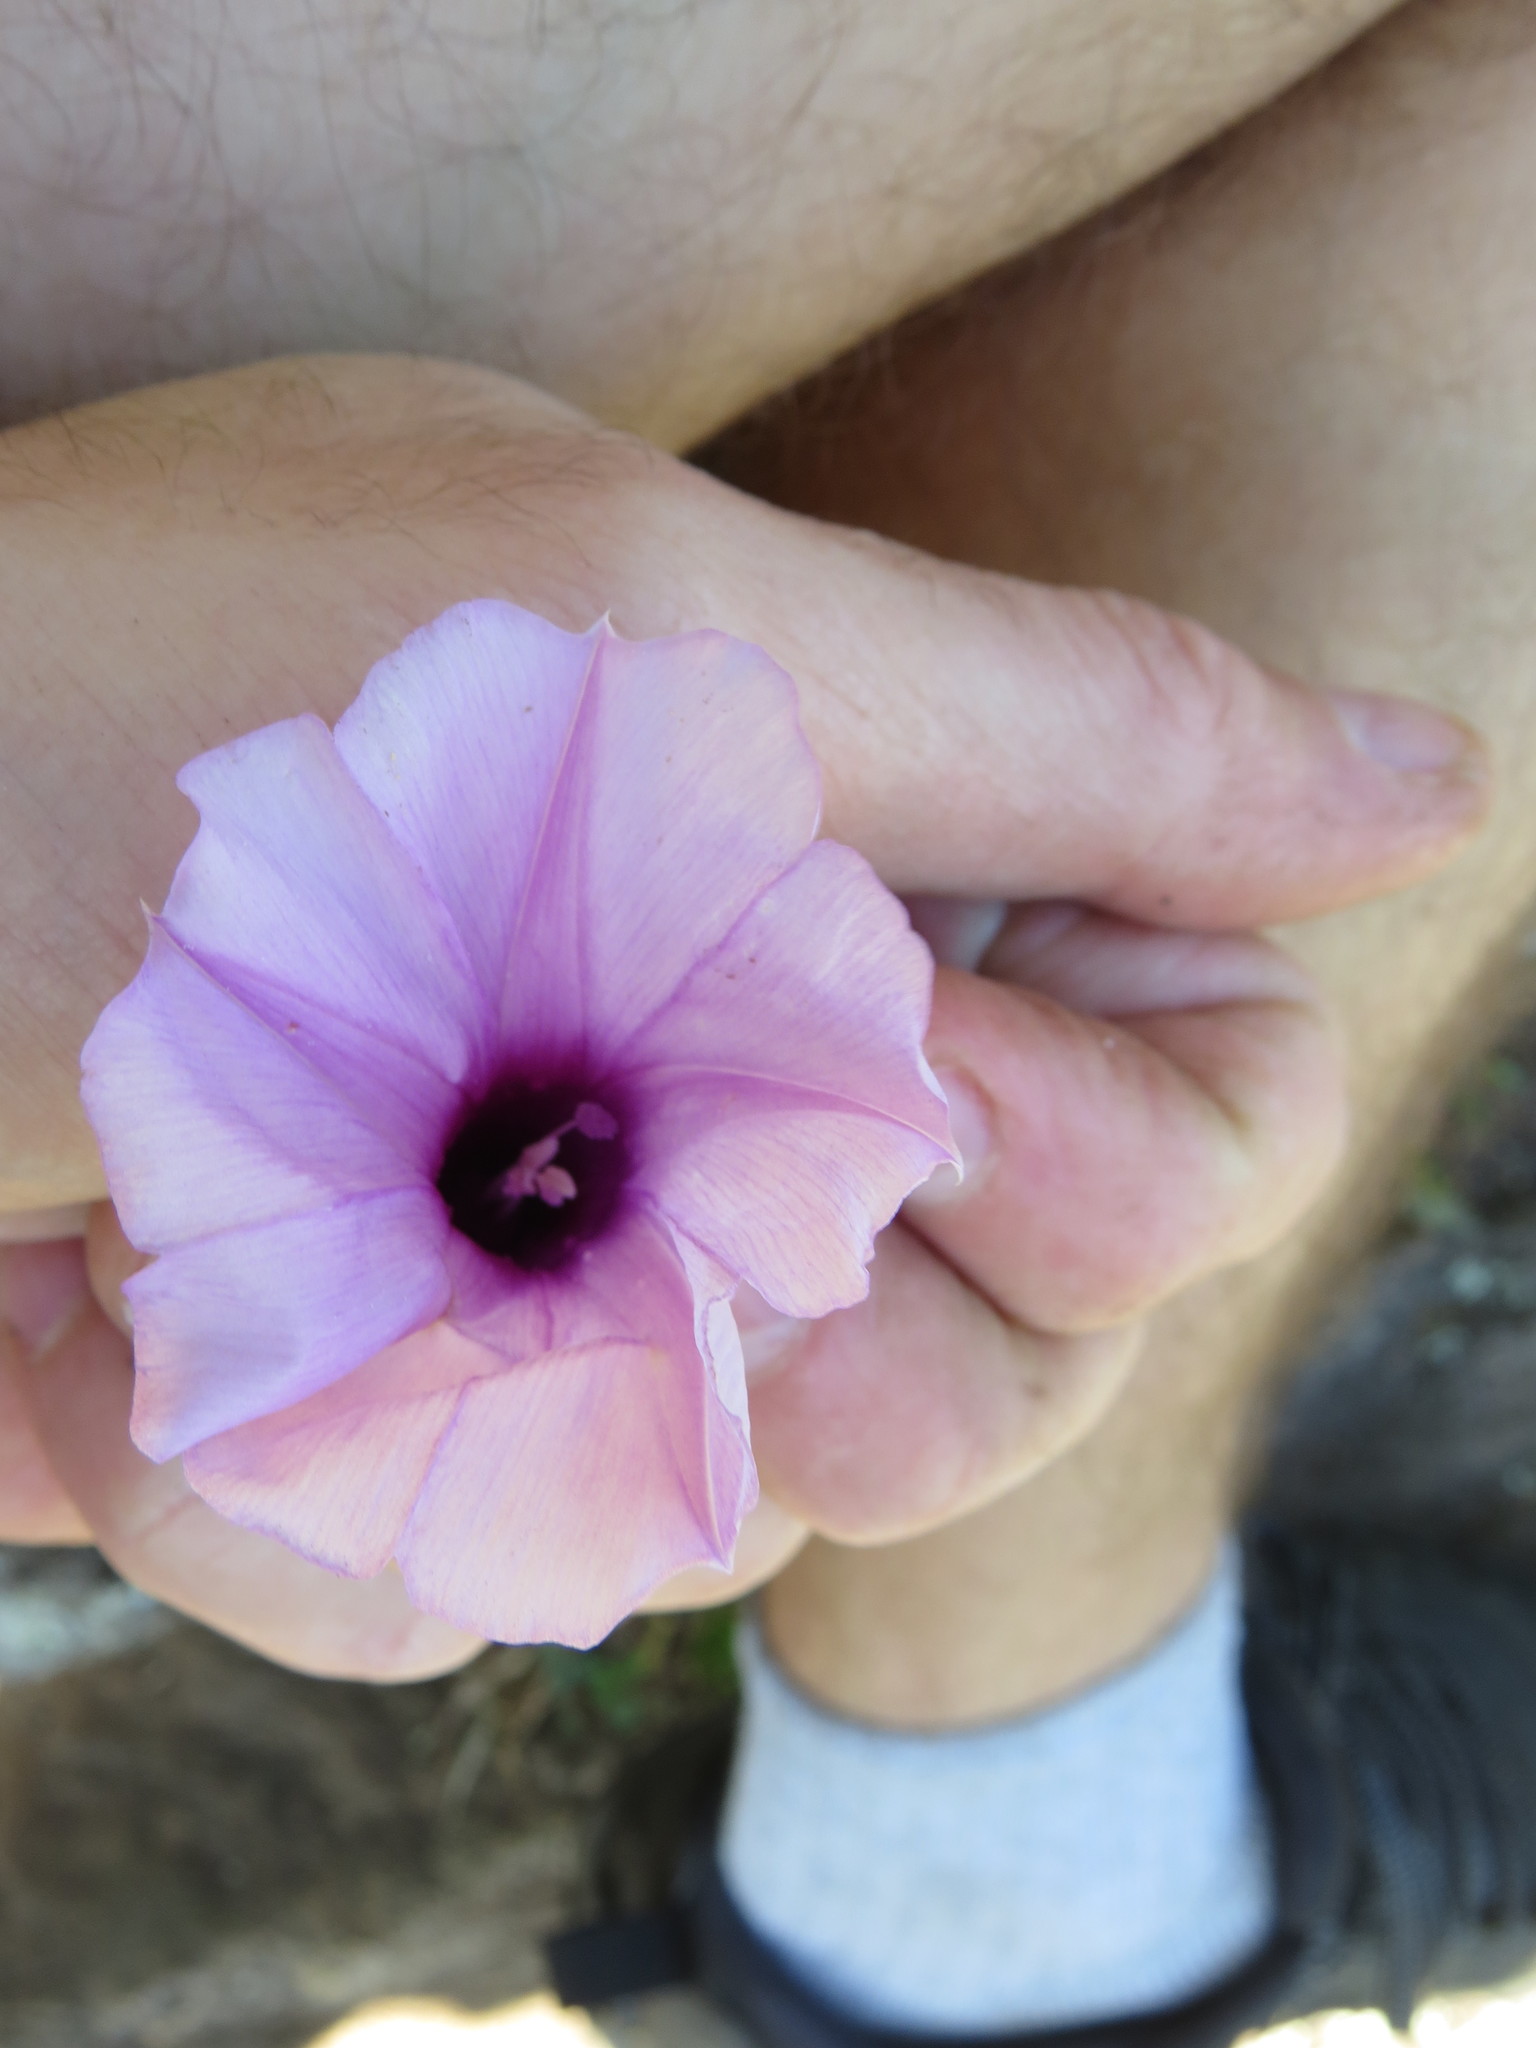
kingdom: Plantae
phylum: Tracheophyta
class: Magnoliopsida
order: Solanales
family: Convolvulaceae
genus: Ipomoea
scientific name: Ipomoea bahiensis
